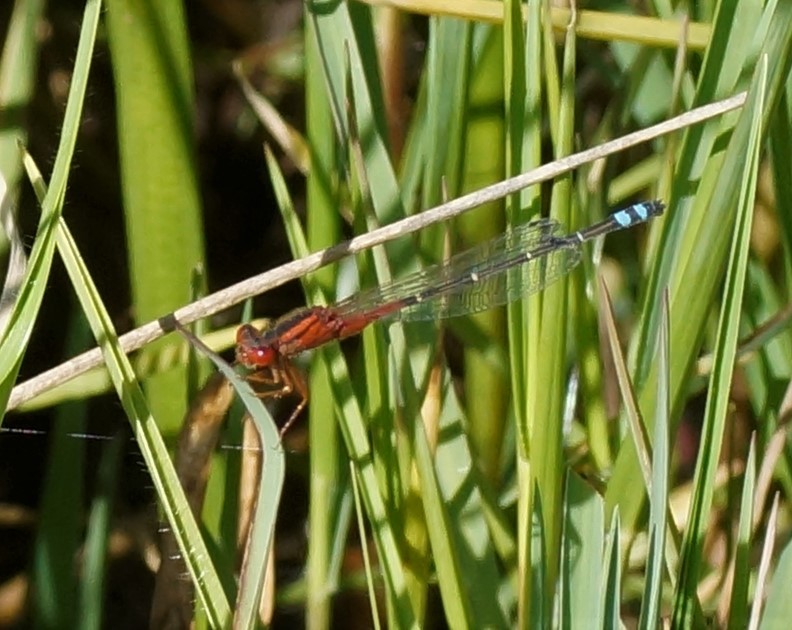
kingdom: Animalia
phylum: Arthropoda
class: Insecta
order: Odonata
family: Coenagrionidae
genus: Xanthagrion
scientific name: Xanthagrion erythroneurum
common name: Red and blue damsel
